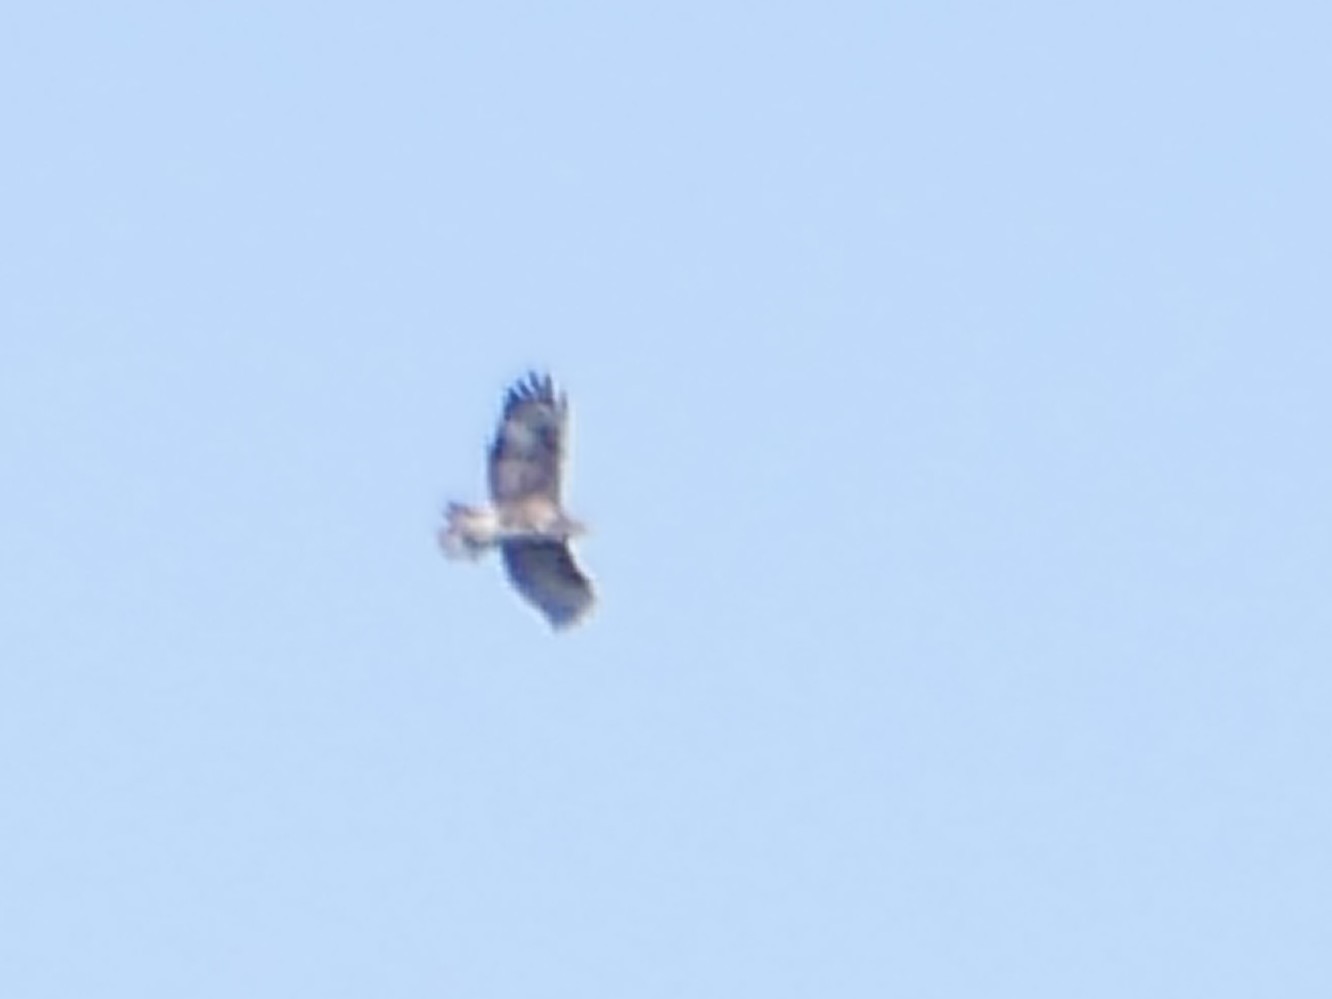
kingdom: Animalia
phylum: Chordata
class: Aves
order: Accipitriformes
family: Accipitridae
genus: Buteo
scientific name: Buteo buteo
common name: Common buzzard
